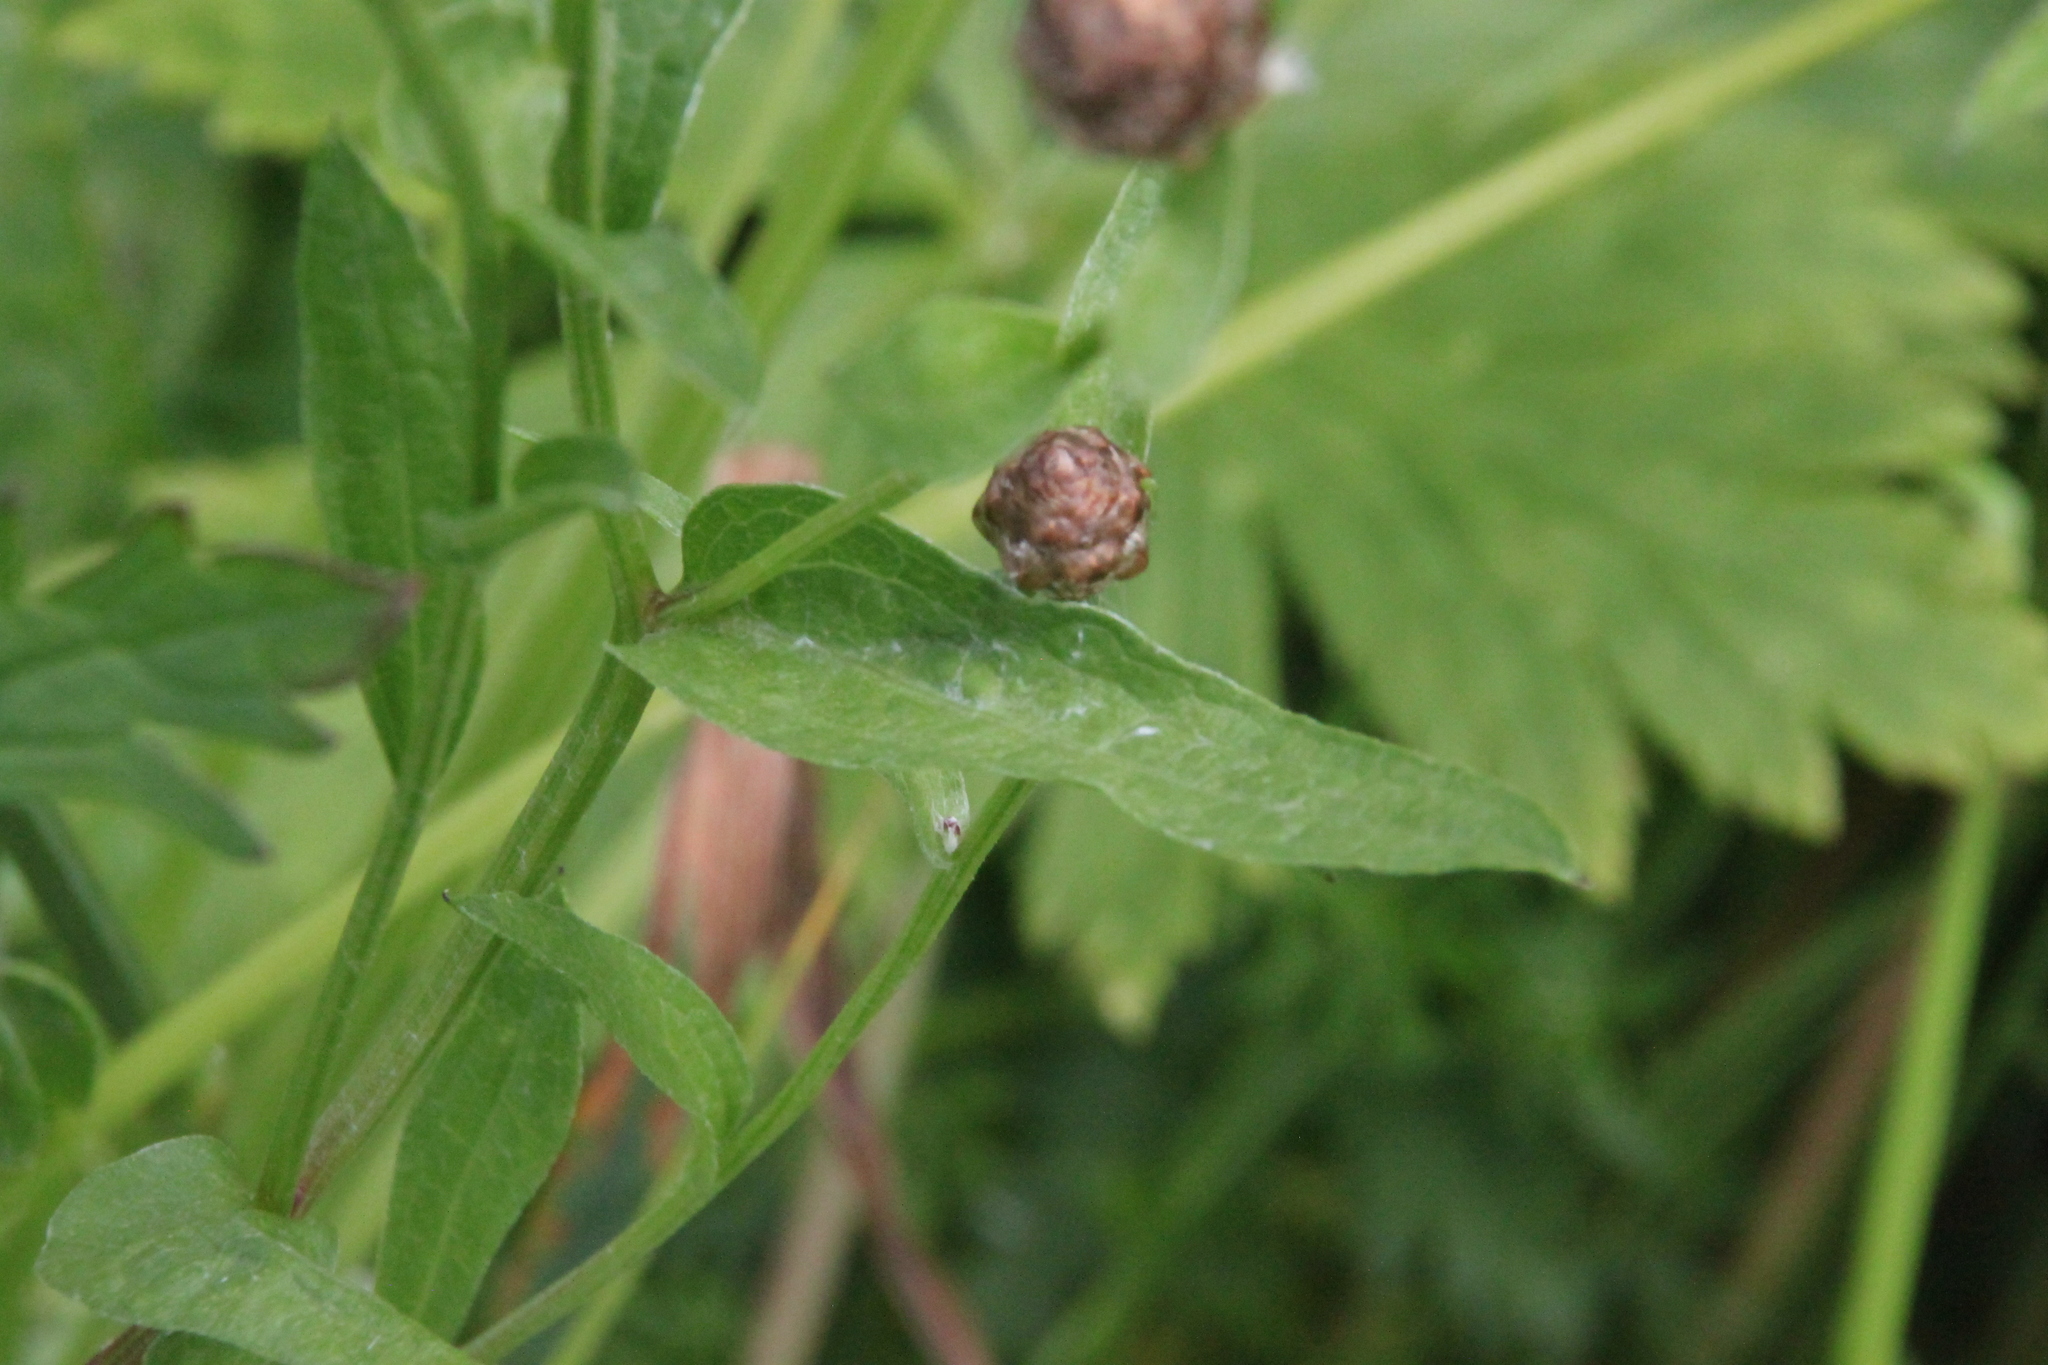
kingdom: Plantae
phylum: Tracheophyta
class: Magnoliopsida
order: Asterales
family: Asteraceae
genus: Centaurea
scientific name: Centaurea jacea
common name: Brown knapweed
